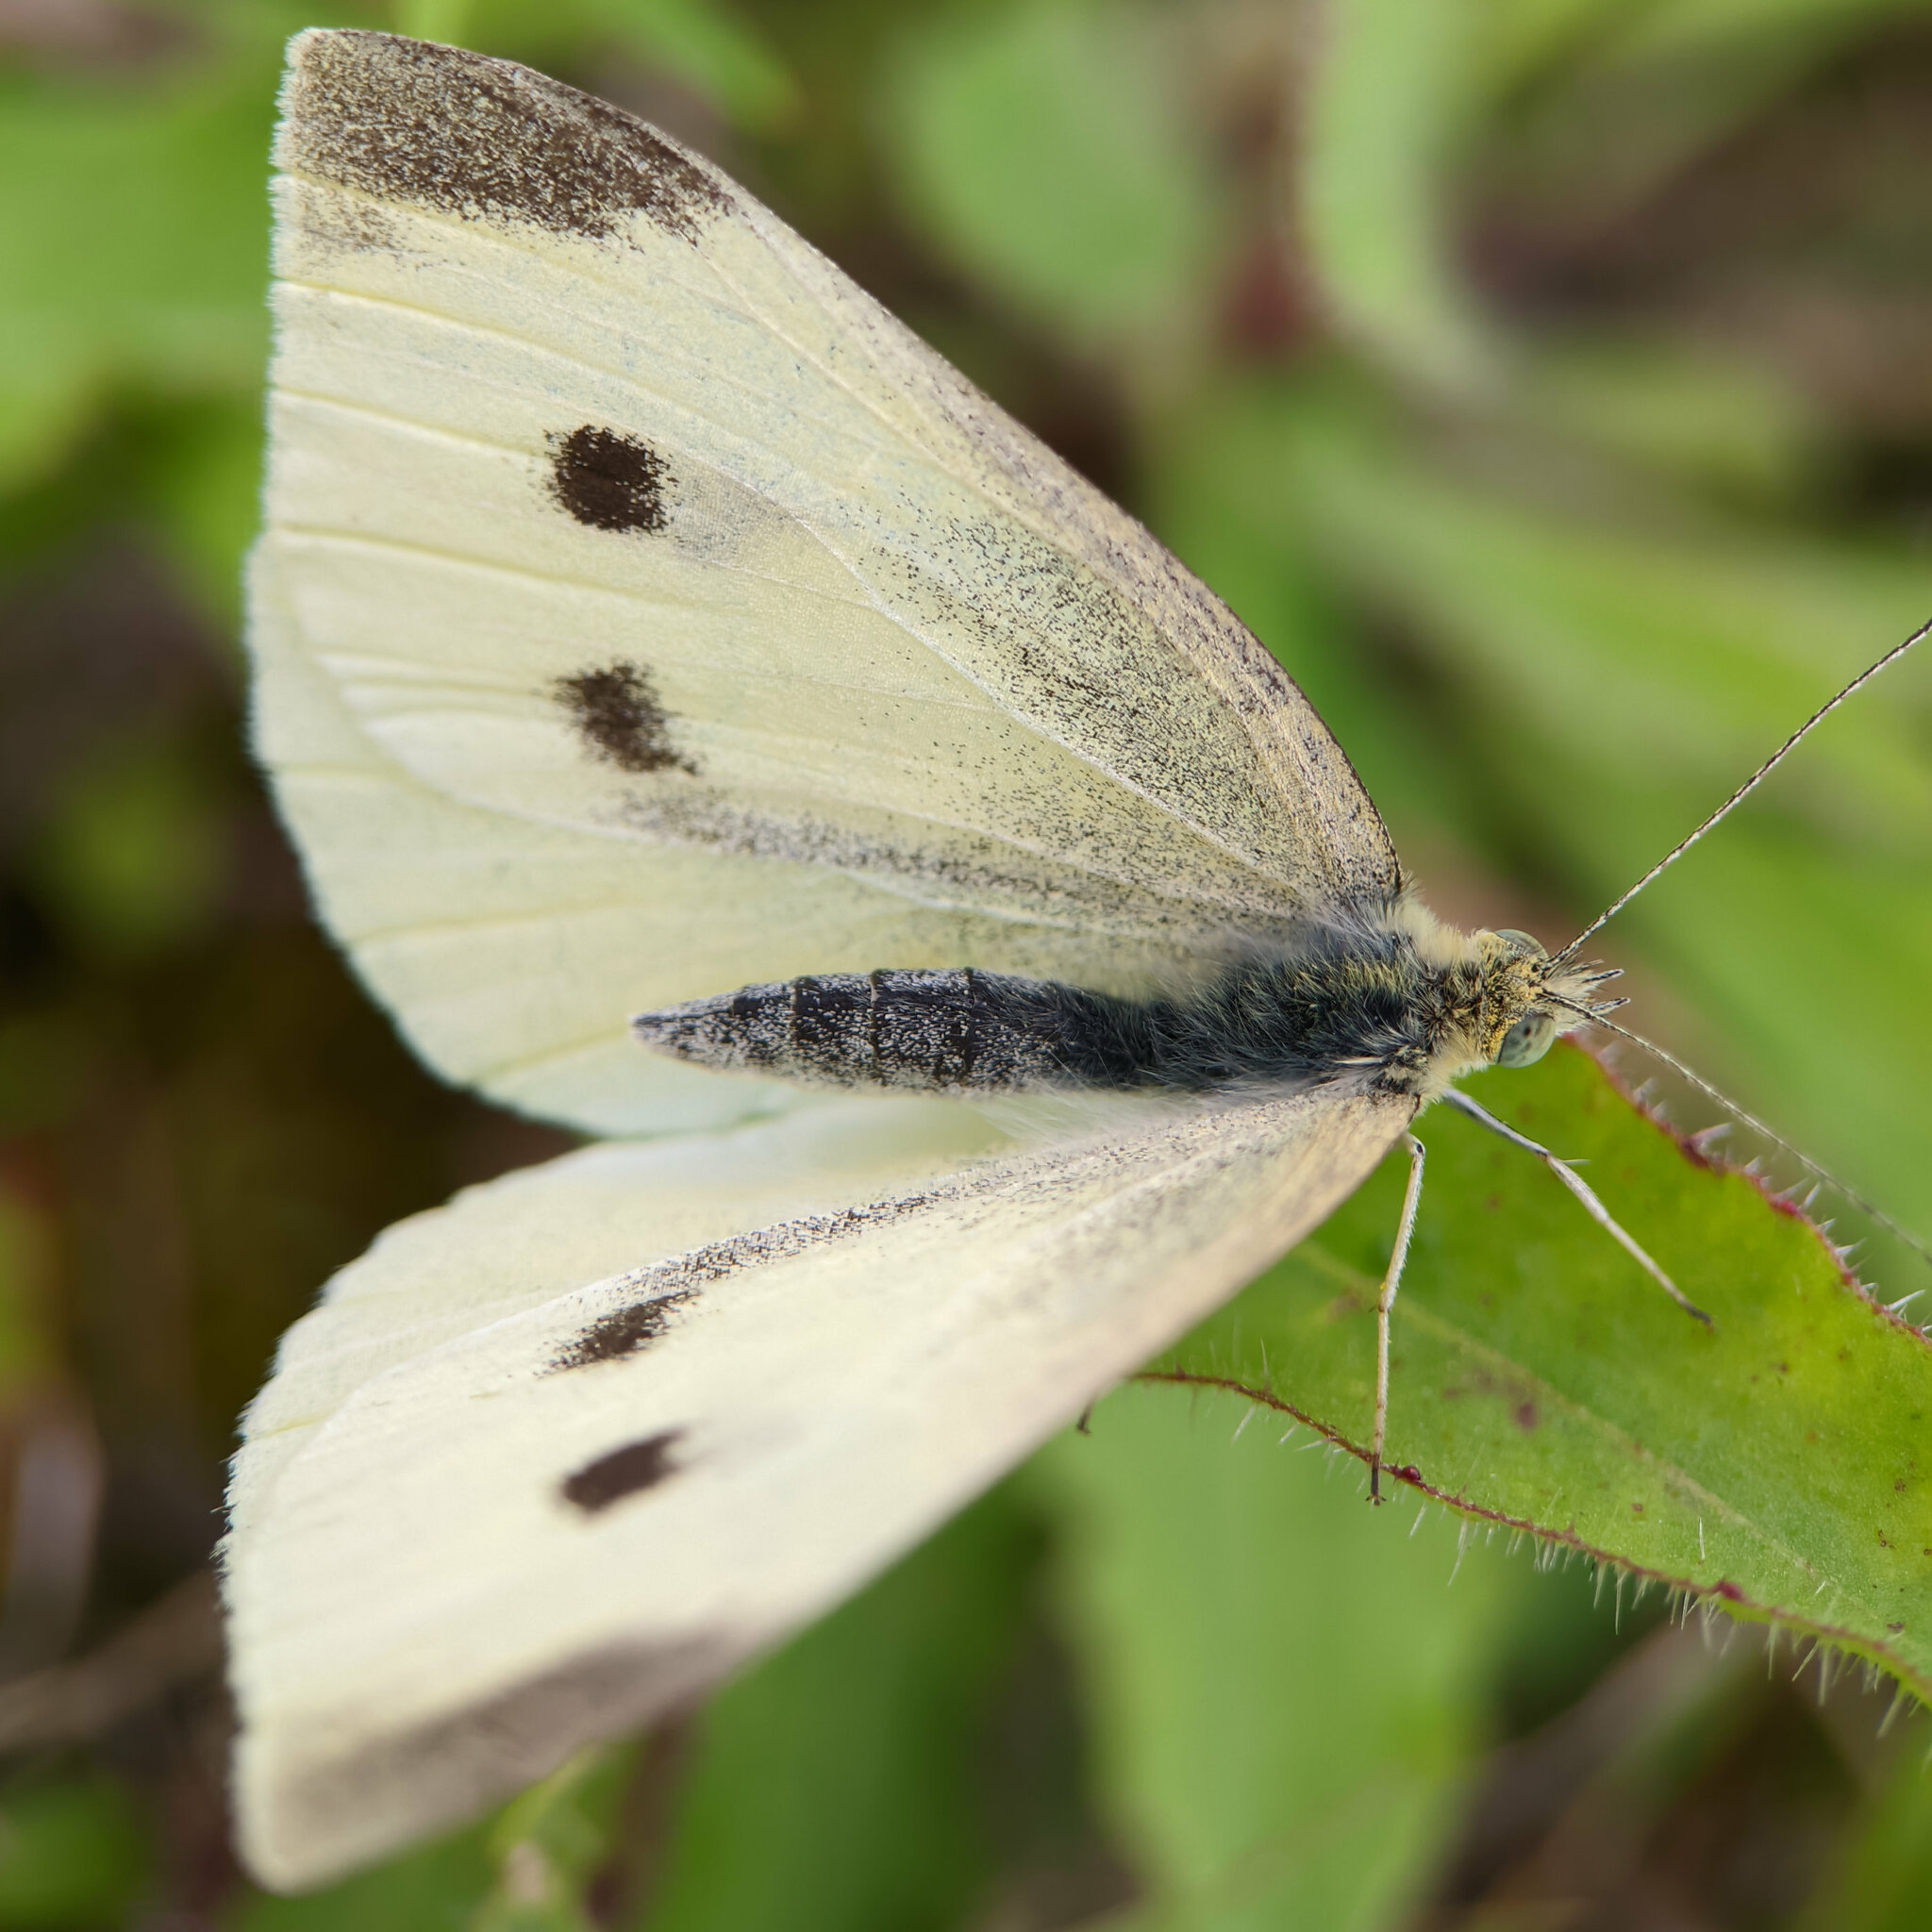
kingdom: Animalia
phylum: Arthropoda
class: Insecta
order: Lepidoptera
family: Pieridae
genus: Pieris
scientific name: Pieris rapae
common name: Small white
